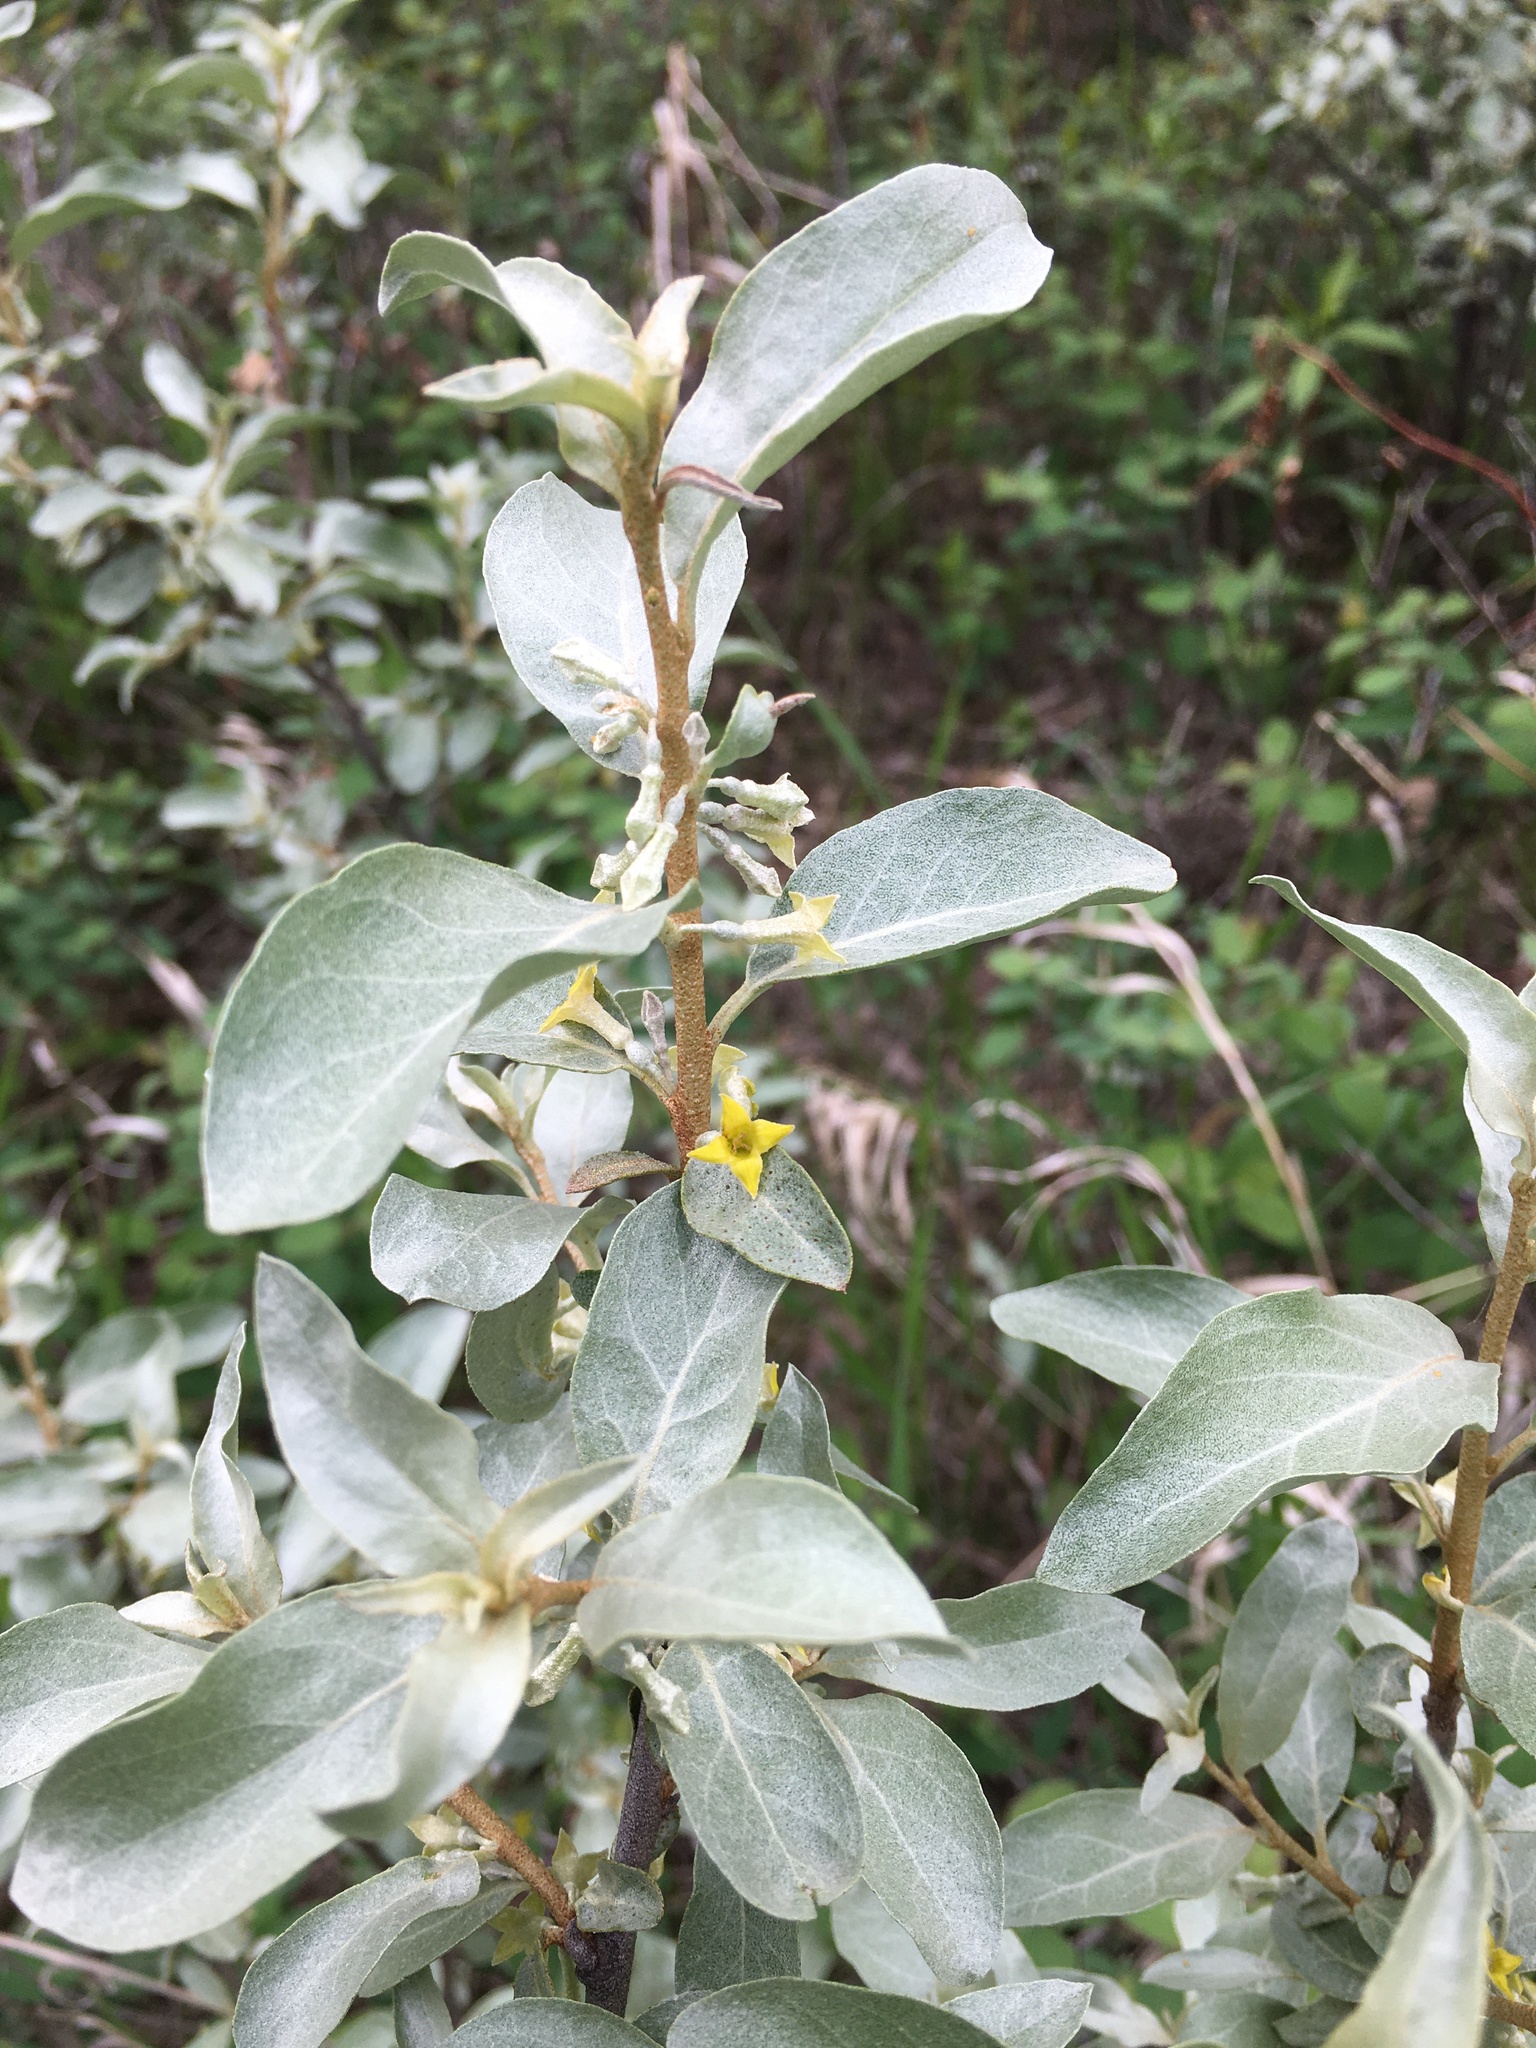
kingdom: Plantae
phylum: Tracheophyta
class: Magnoliopsida
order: Rosales
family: Elaeagnaceae
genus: Elaeagnus
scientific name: Elaeagnus commutata
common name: Silverberry
